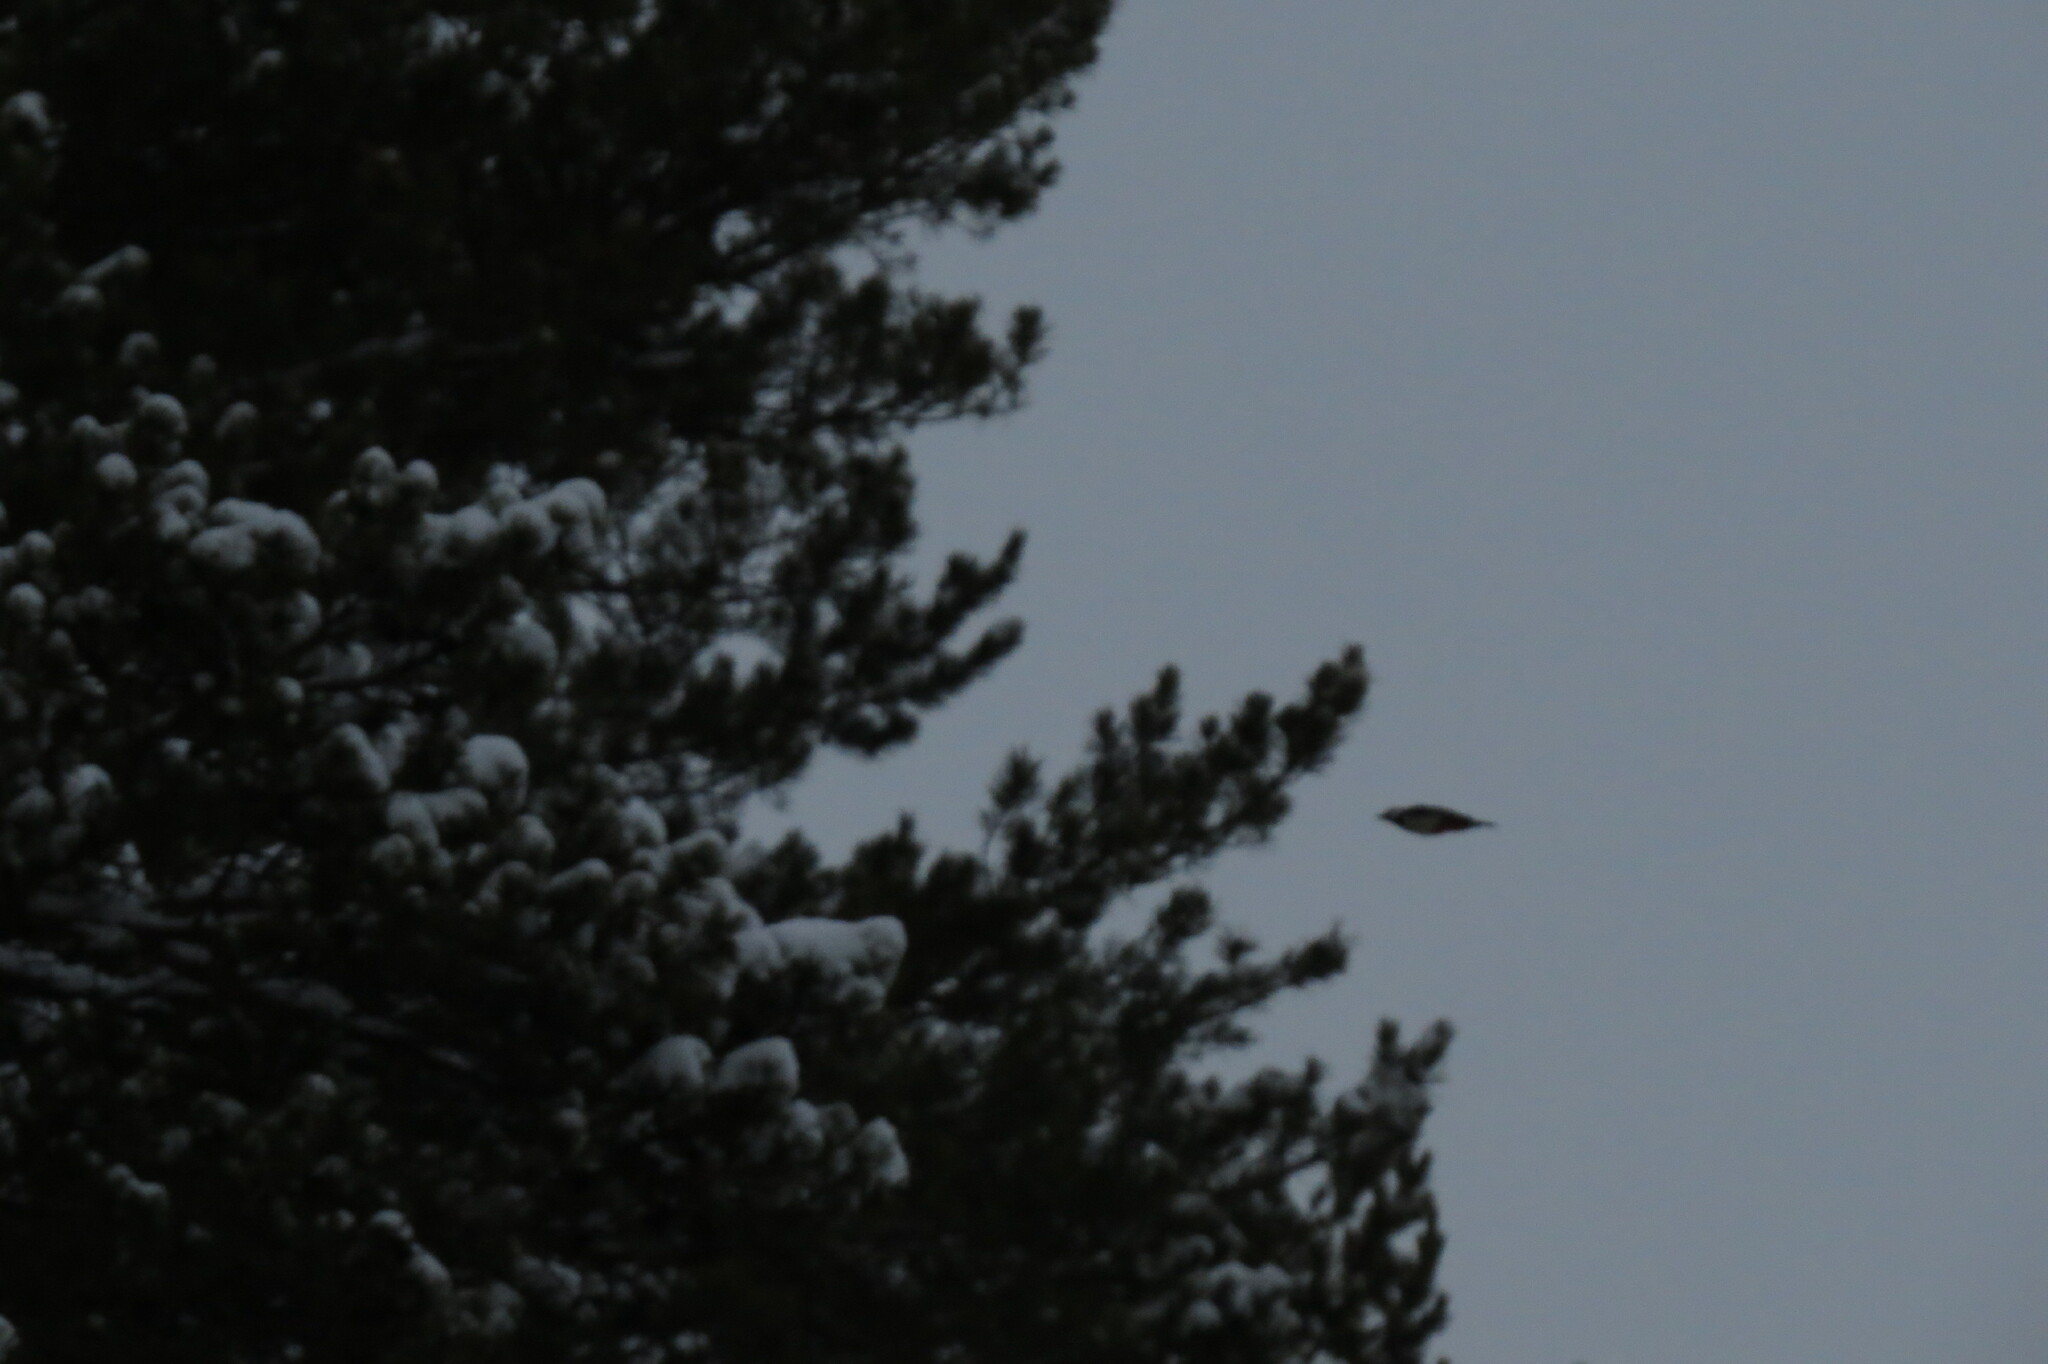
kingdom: Animalia
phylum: Chordata
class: Aves
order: Piciformes
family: Picidae
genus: Dendrocopos
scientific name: Dendrocopos major
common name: Great spotted woodpecker
